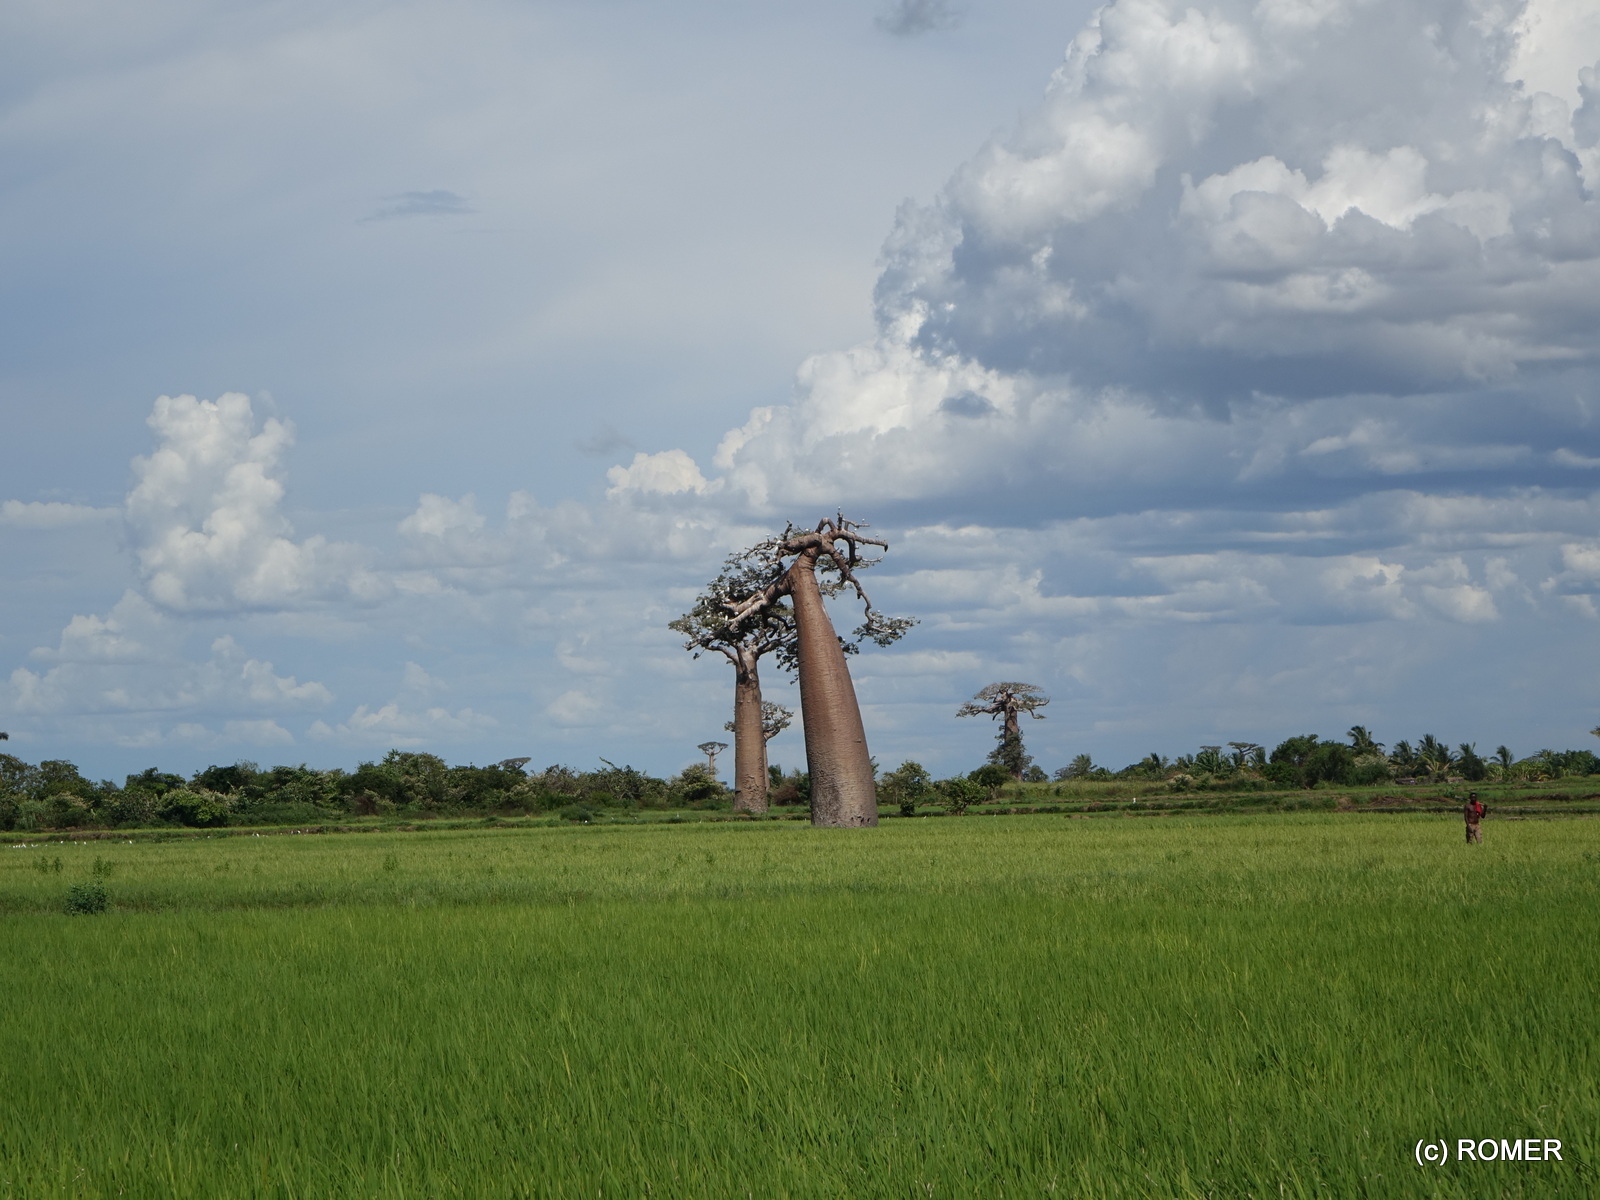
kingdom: Plantae
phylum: Tracheophyta
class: Magnoliopsida
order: Malvales
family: Malvaceae
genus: Adansonia
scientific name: Adansonia grandidieri
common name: Grandidier's baobab
